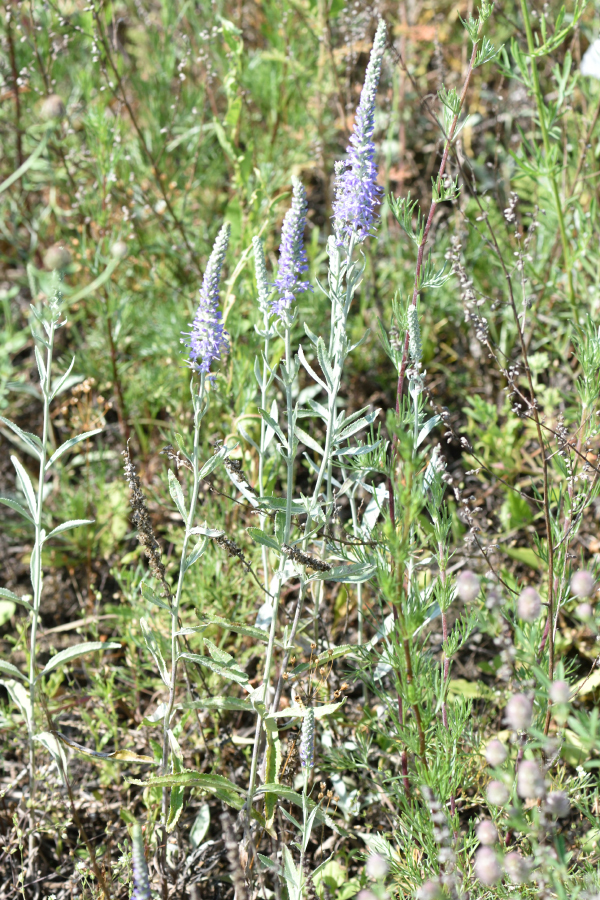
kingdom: Plantae
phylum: Tracheophyta
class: Magnoliopsida
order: Lamiales
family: Plantaginaceae
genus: Veronica
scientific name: Veronica incana
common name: Silver speedwell
